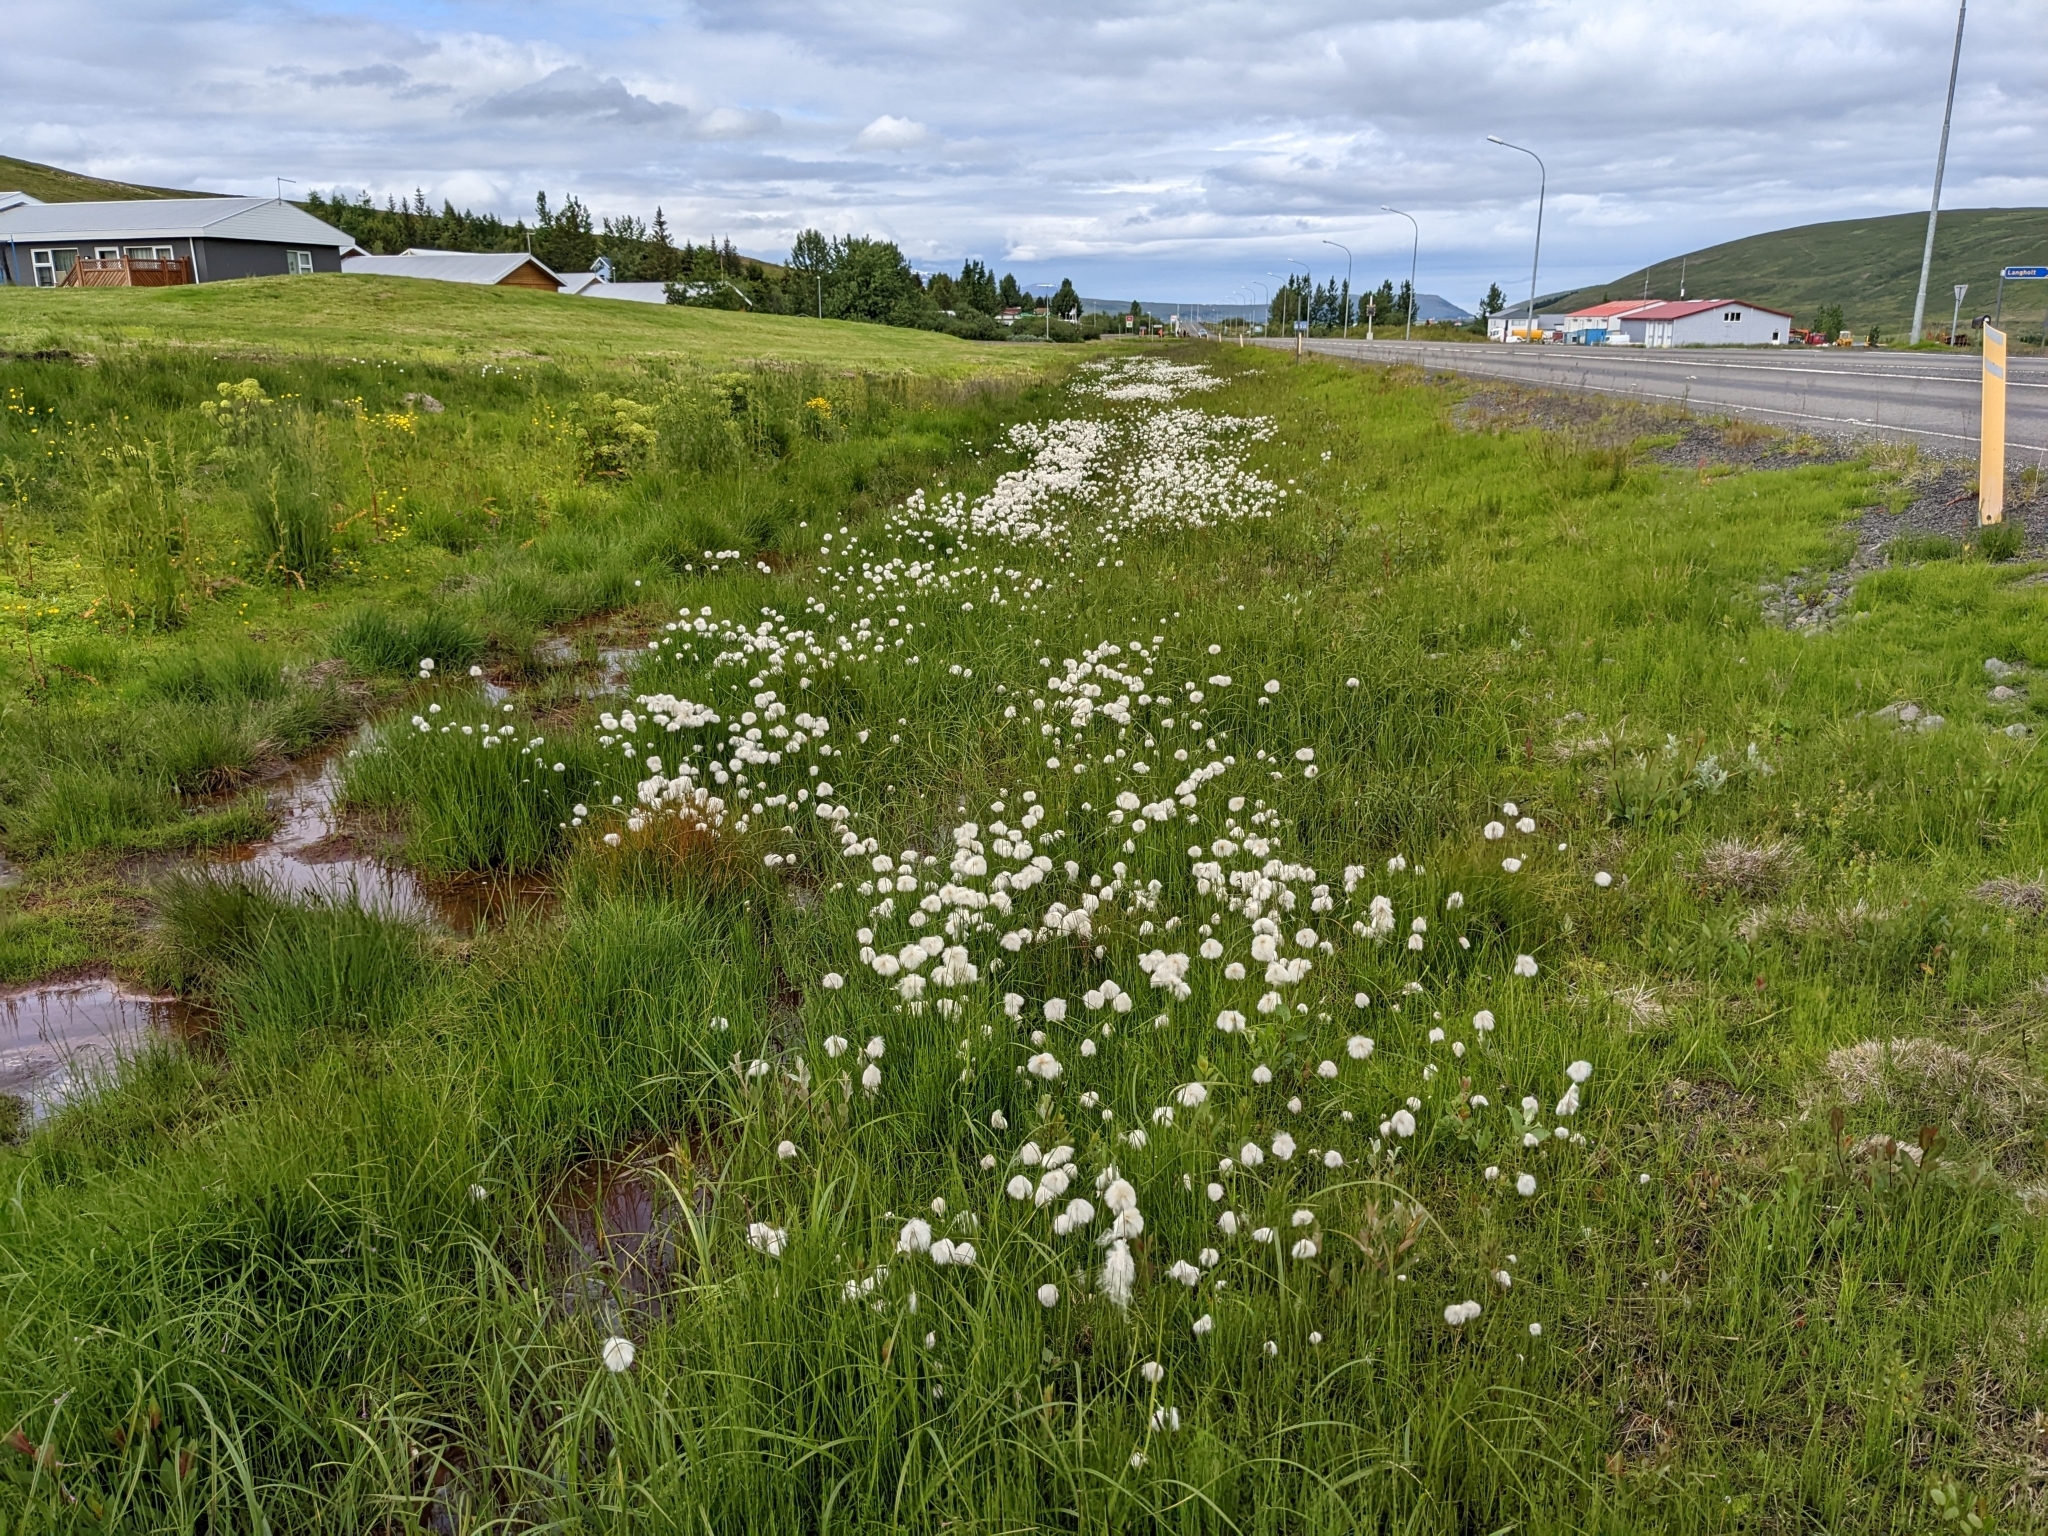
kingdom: Plantae
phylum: Tracheophyta
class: Liliopsida
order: Poales
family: Cyperaceae
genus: Eriophorum
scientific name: Eriophorum scheuchzeri
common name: Scheuchzer's cottongrass
